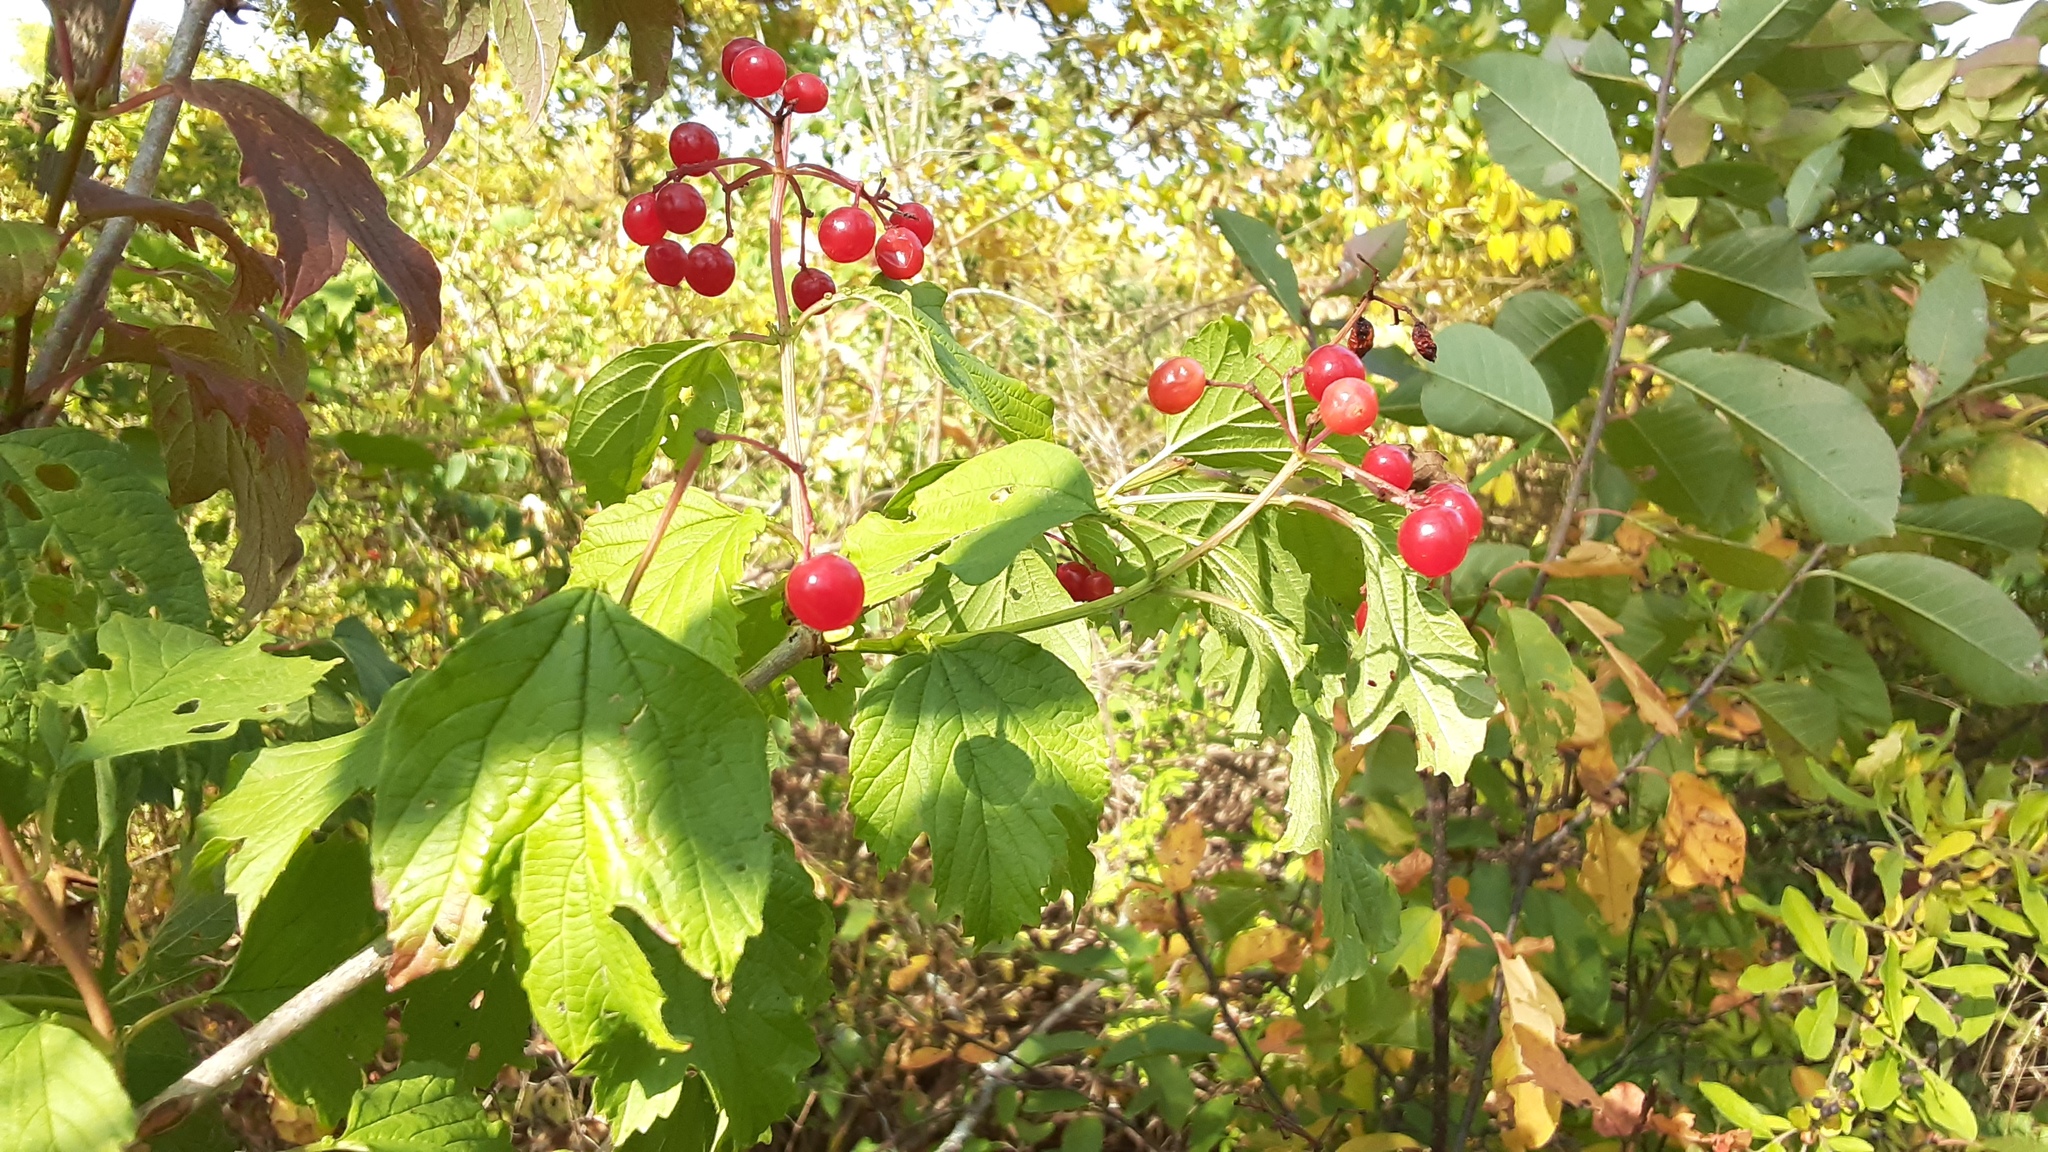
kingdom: Plantae
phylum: Tracheophyta
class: Magnoliopsida
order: Dipsacales
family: Viburnaceae
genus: Viburnum
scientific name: Viburnum opulus
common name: Guelder-rose
